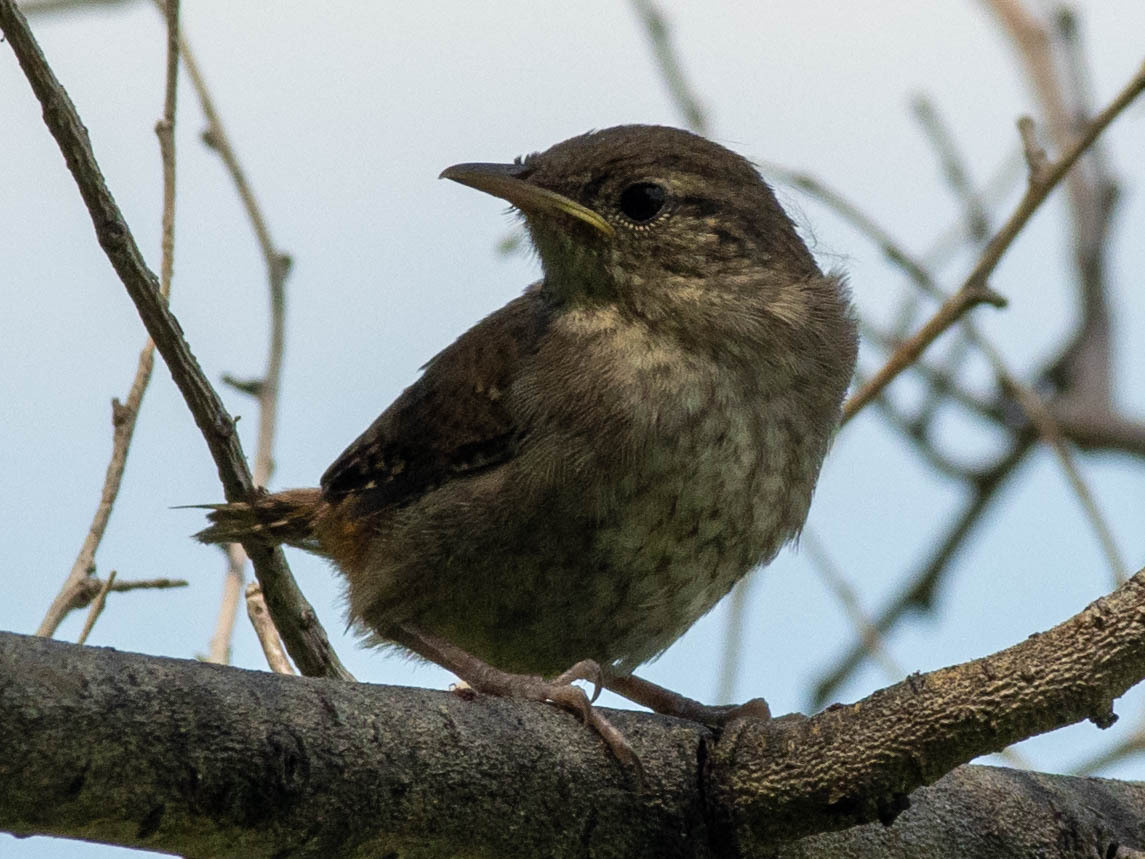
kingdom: Animalia
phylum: Chordata
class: Aves
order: Passeriformes
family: Troglodytidae
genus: Troglodytes
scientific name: Troglodytes aedon
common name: House wren
